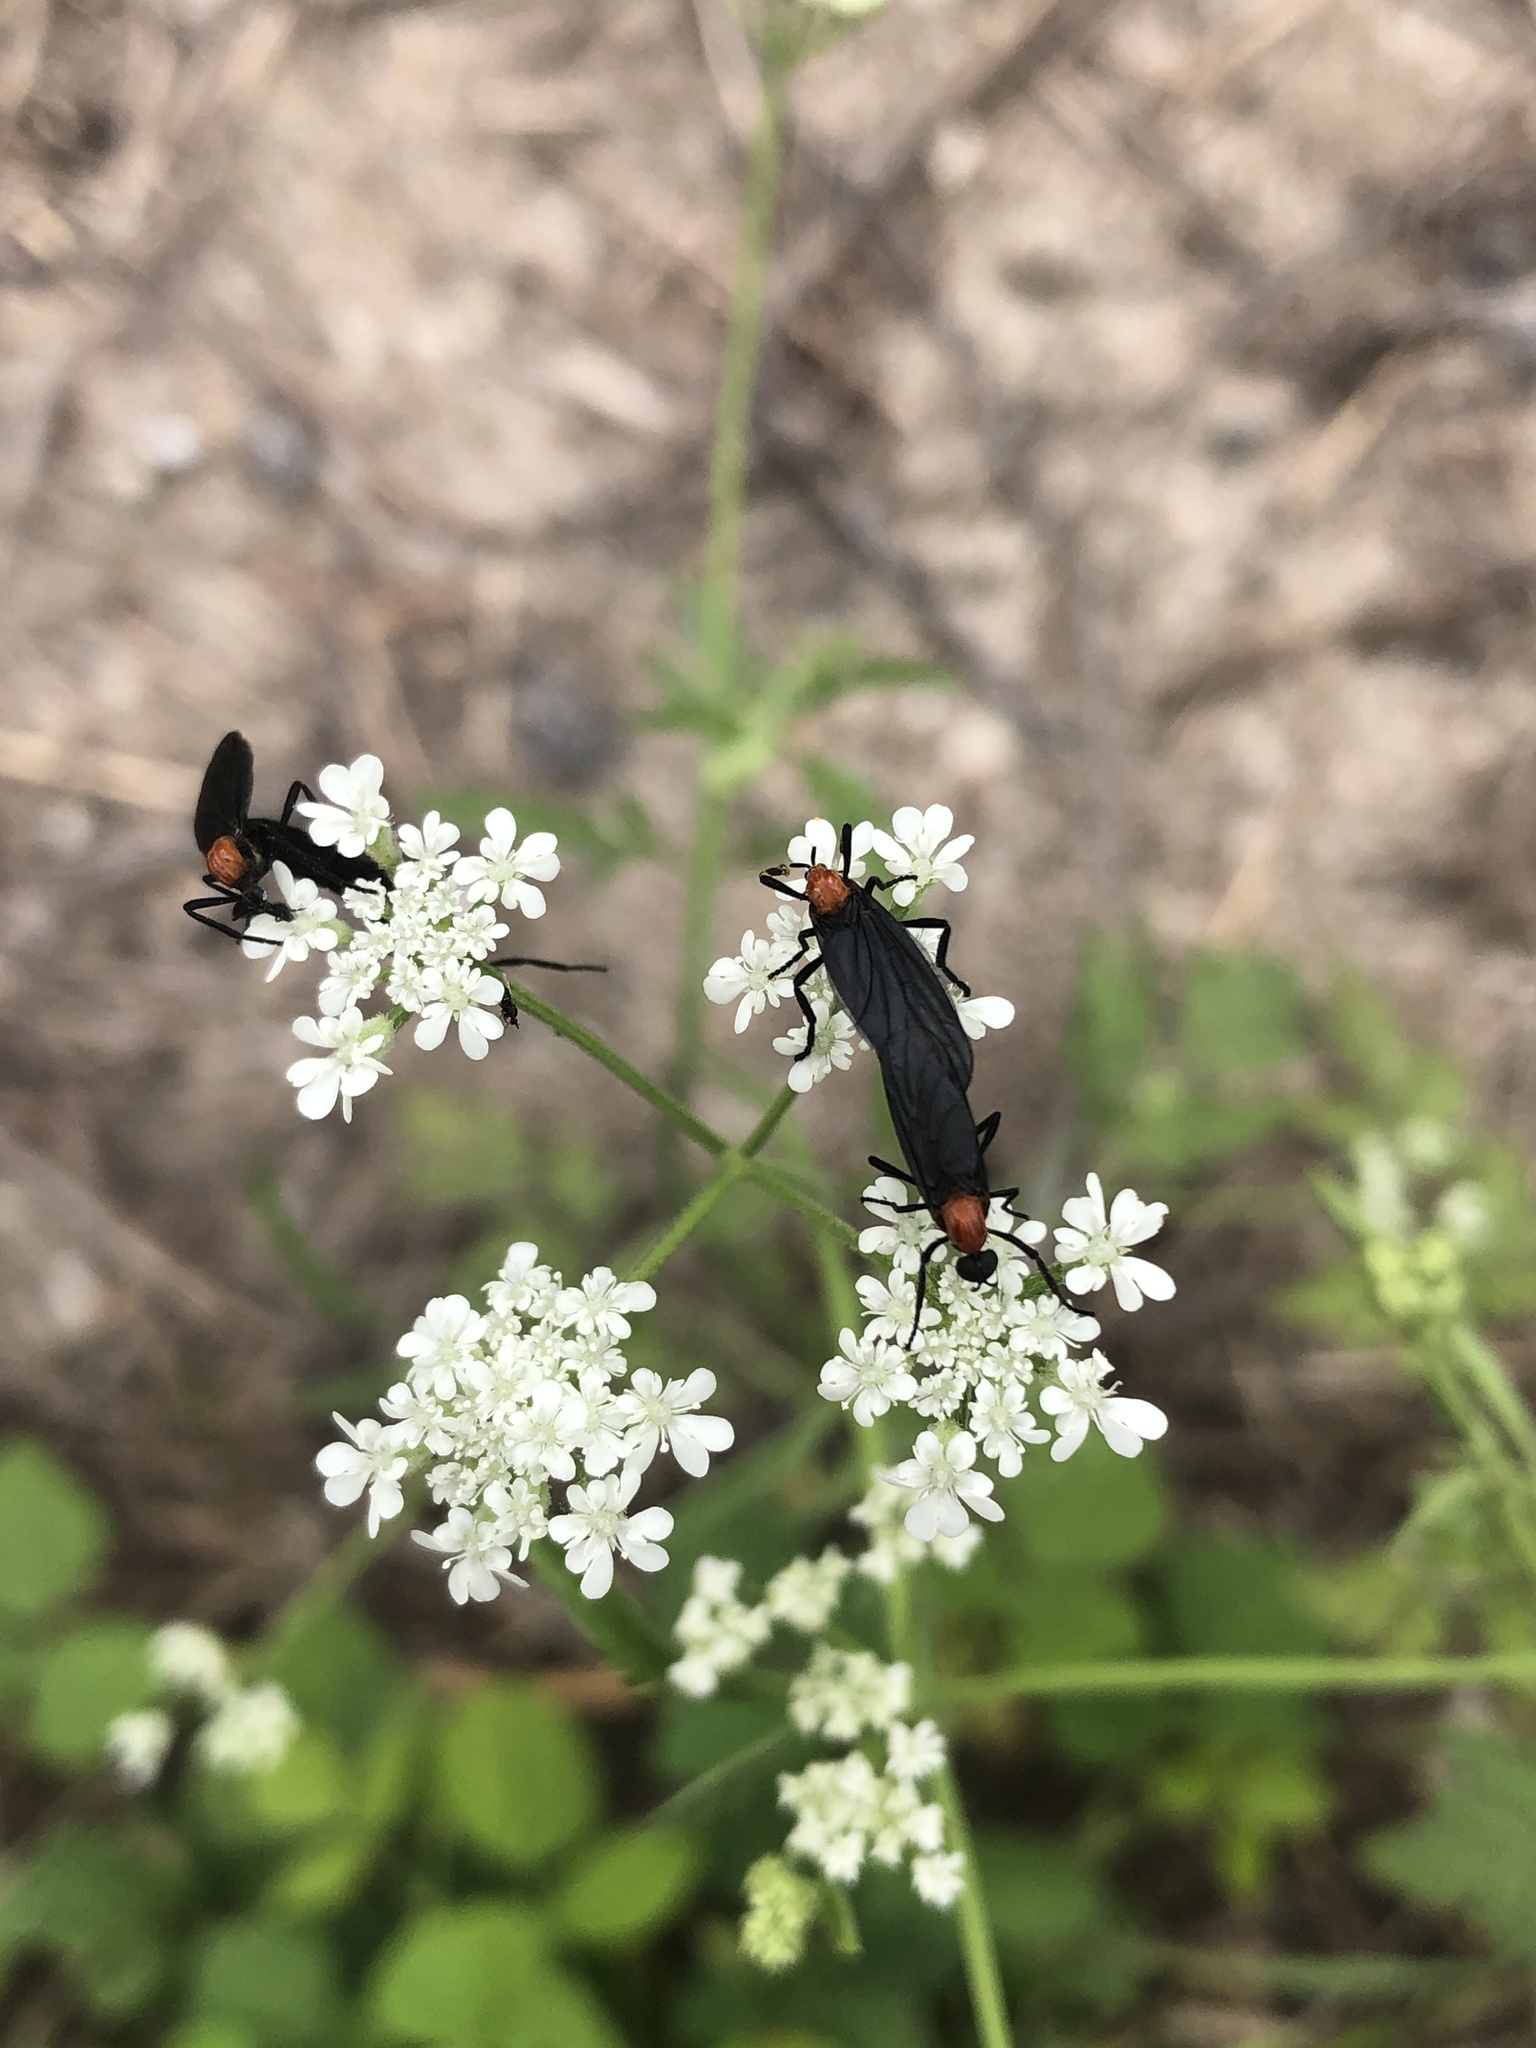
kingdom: Animalia
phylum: Arthropoda
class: Insecta
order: Diptera
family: Bibionidae
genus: Plecia
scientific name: Plecia nearctica
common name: March fly
